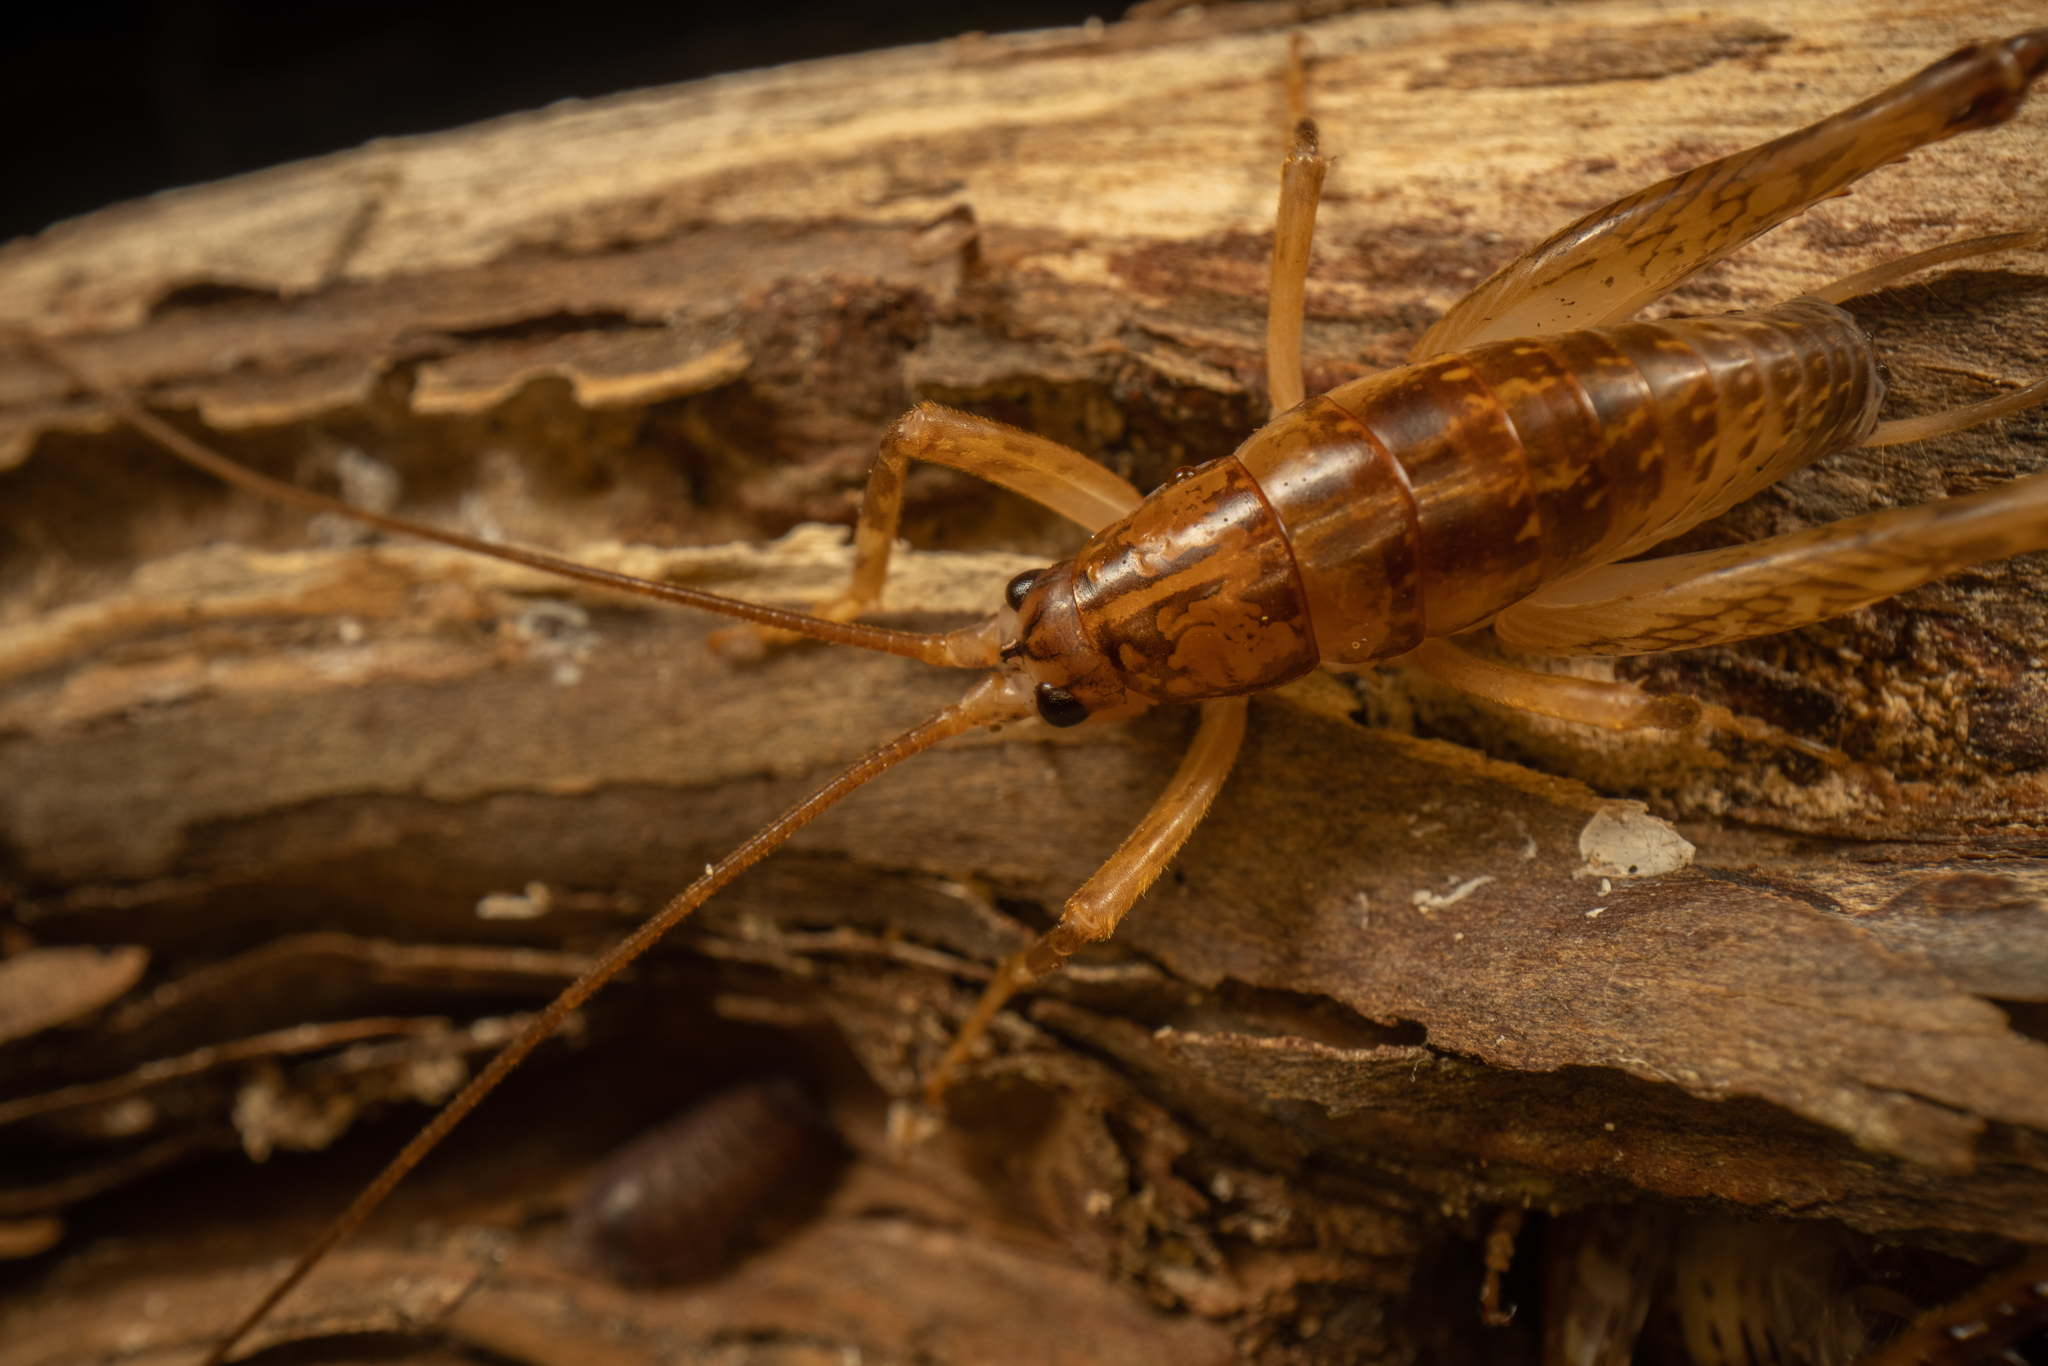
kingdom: Animalia
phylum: Arthropoda
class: Insecta
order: Orthoptera
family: Rhaphidophoridae
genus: Talitropsis
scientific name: Talitropsis sedilloti
